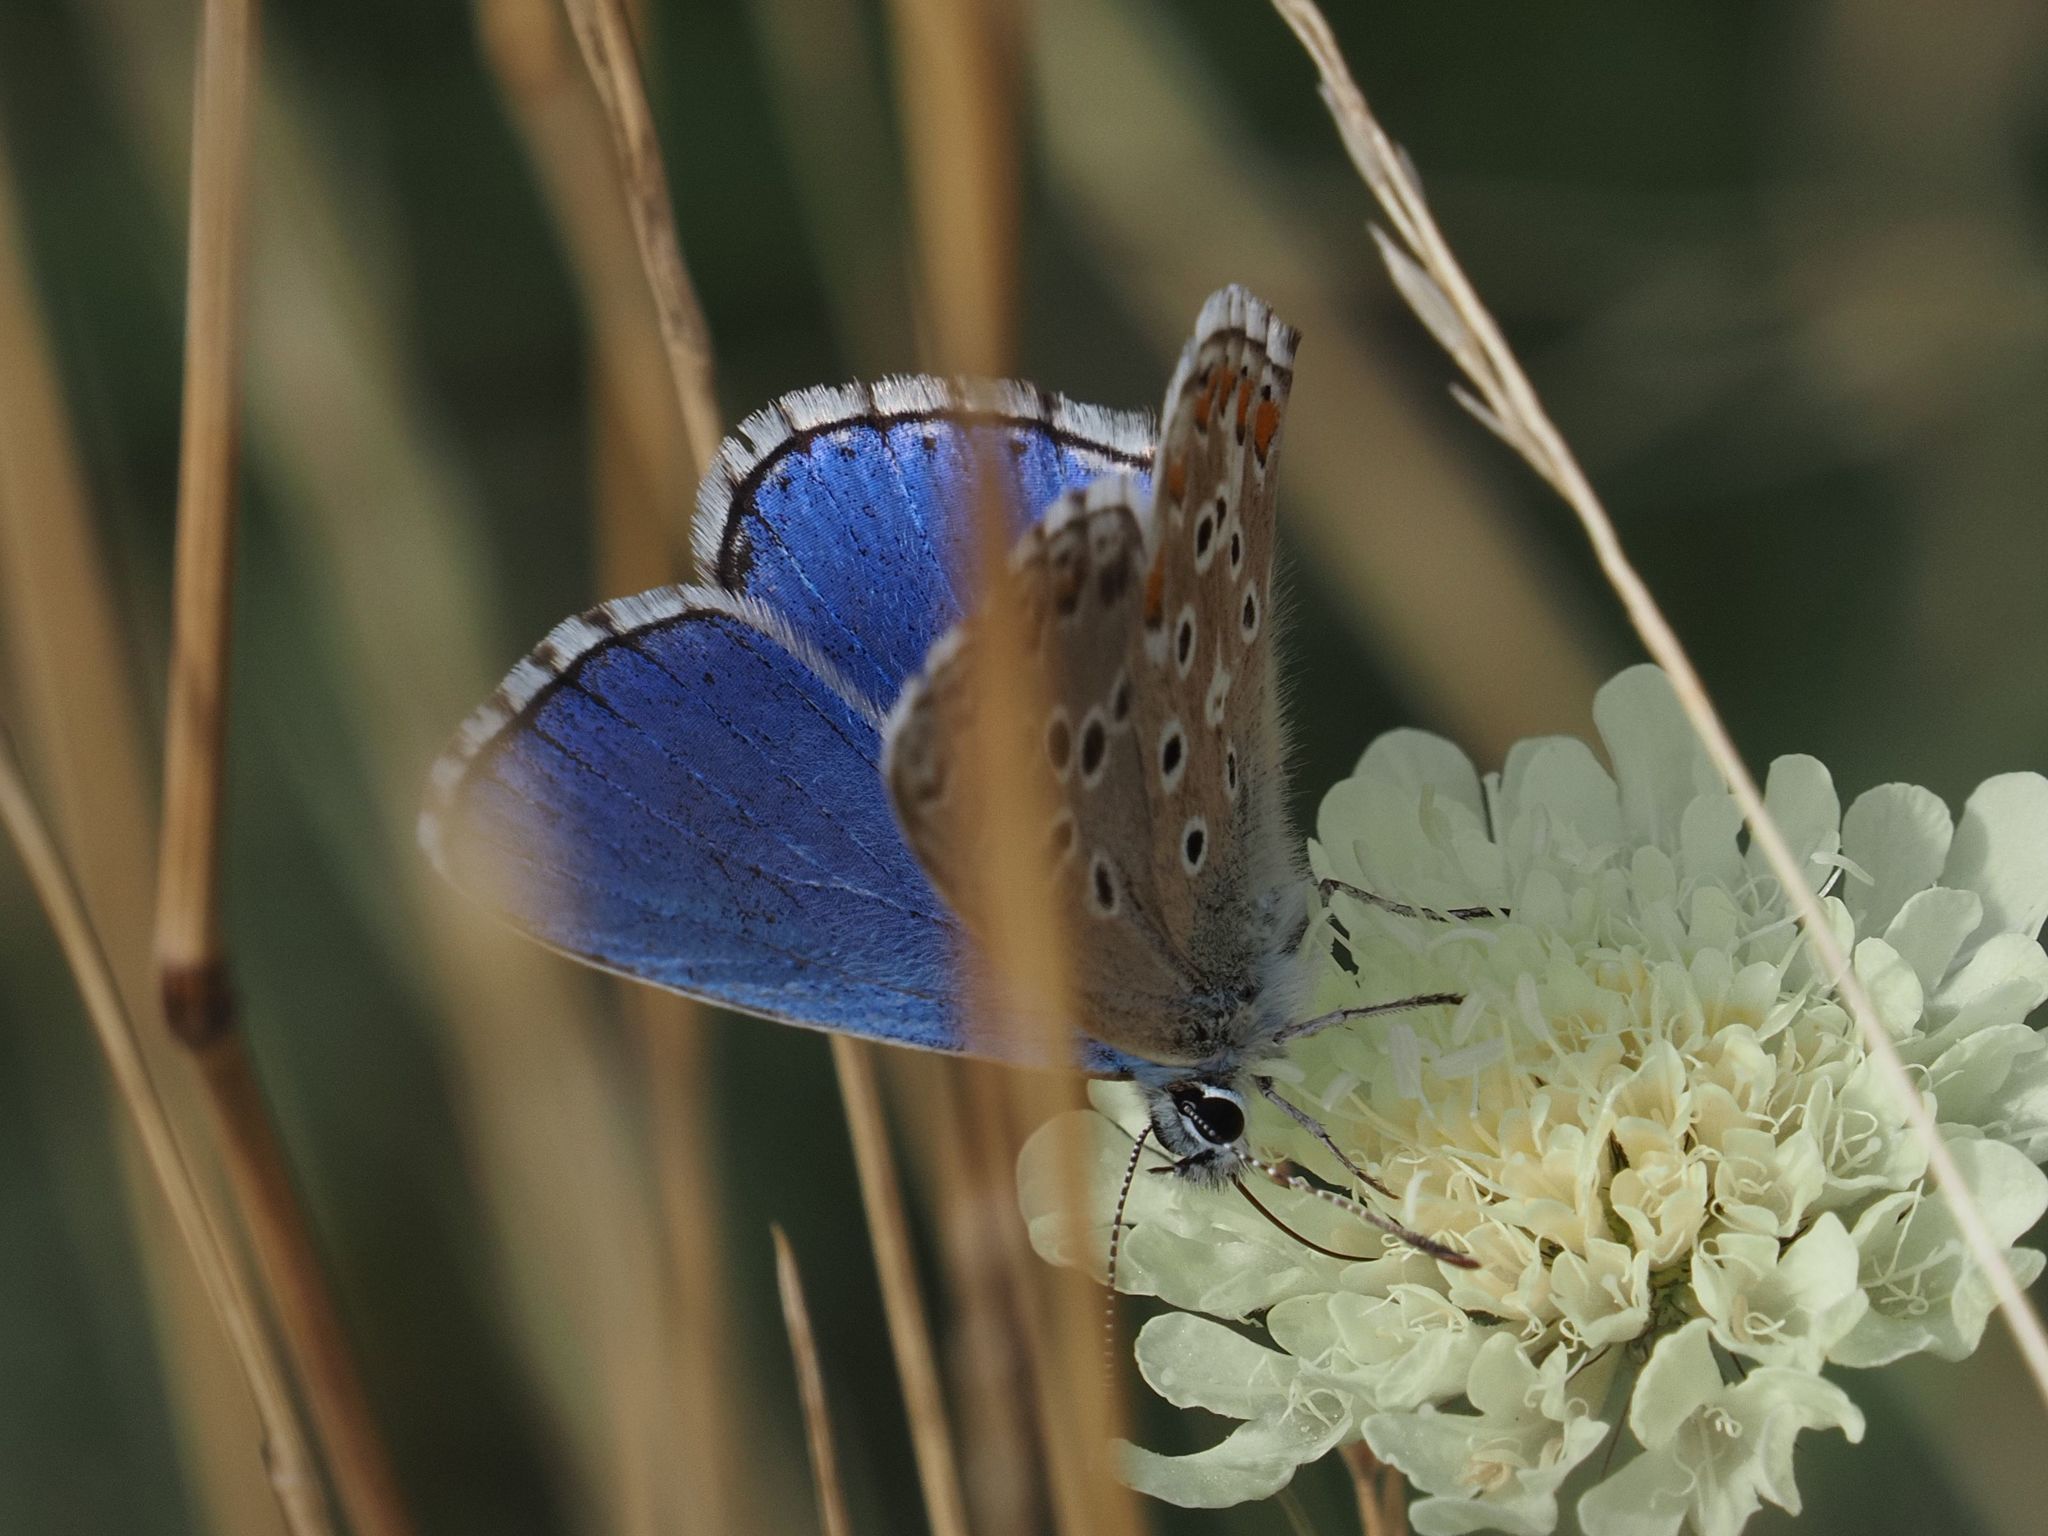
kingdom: Animalia
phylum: Arthropoda
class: Insecta
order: Lepidoptera
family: Lycaenidae
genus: Lysandra
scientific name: Lysandra bellargus
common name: Adonis blue
